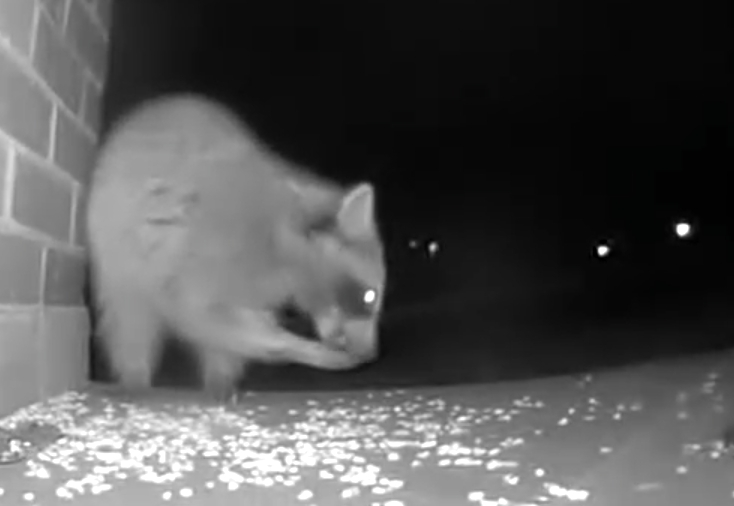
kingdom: Animalia
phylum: Chordata
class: Mammalia
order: Carnivora
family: Procyonidae
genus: Procyon
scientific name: Procyon lotor
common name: Raccoon
